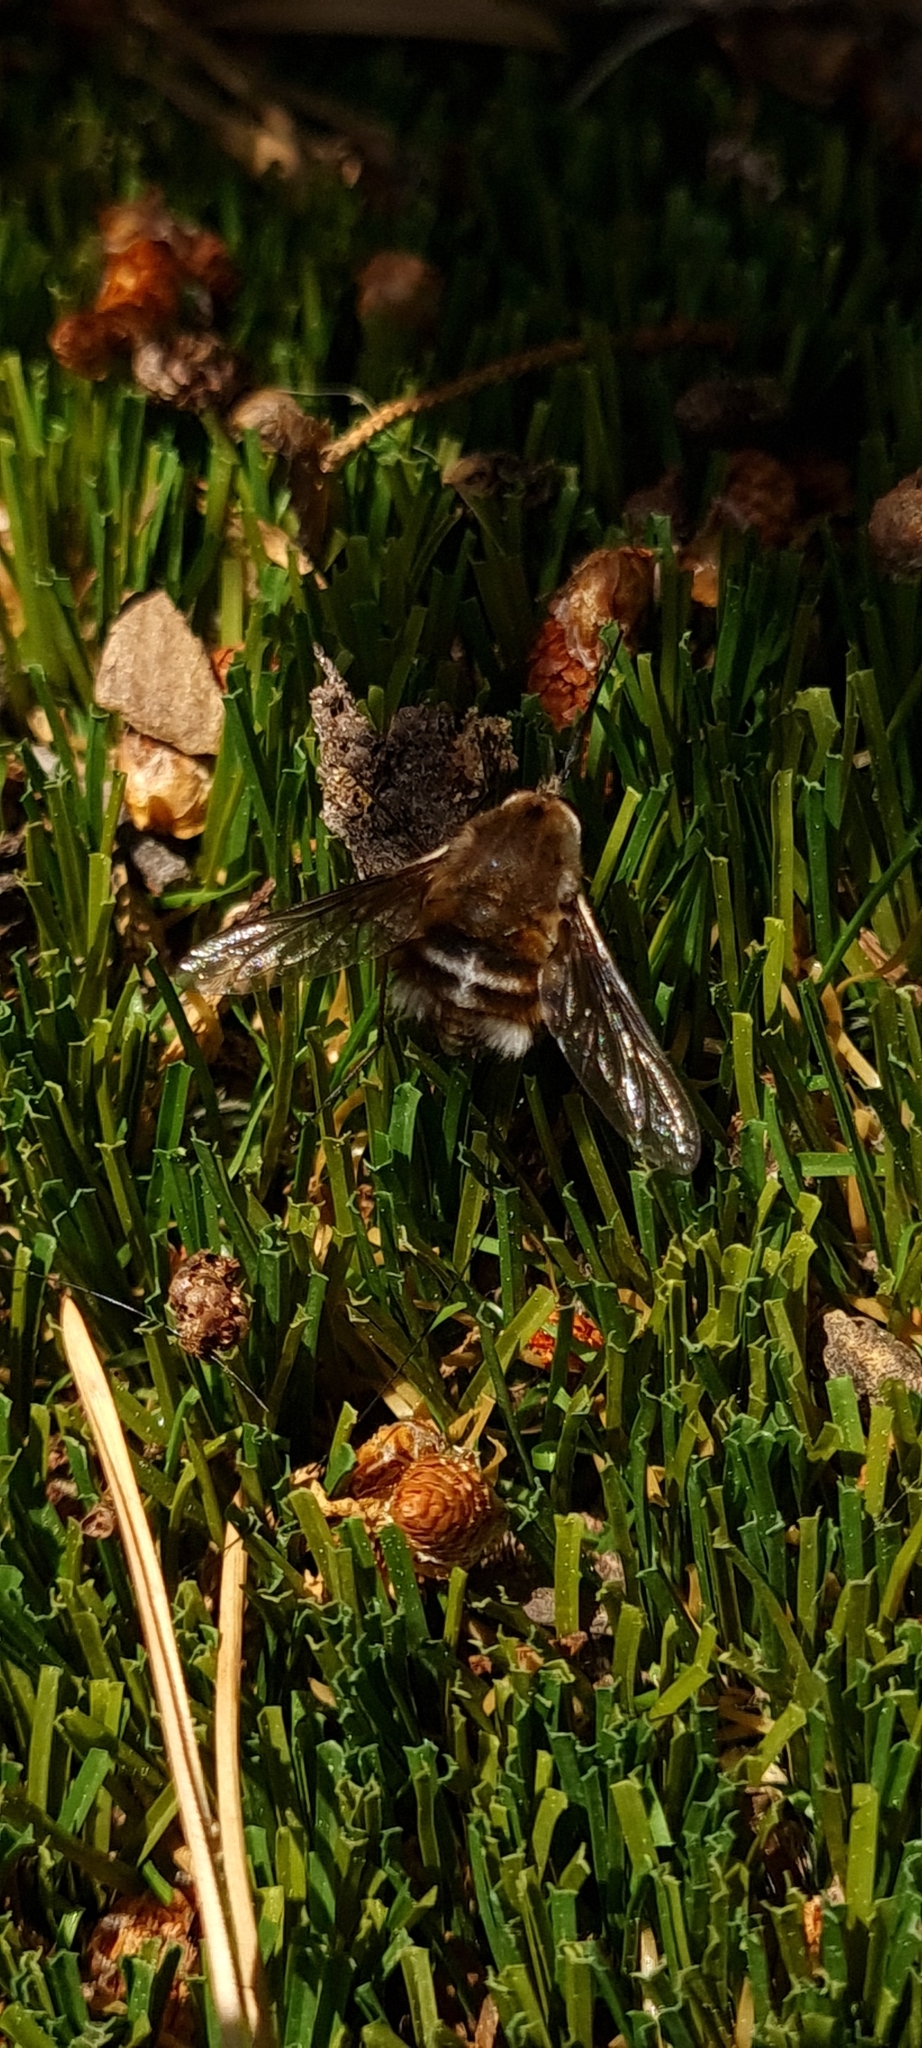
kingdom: Animalia
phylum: Arthropoda
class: Insecta
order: Diptera
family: Bombyliidae
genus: Bombylius
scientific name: Bombylius cruciatus
